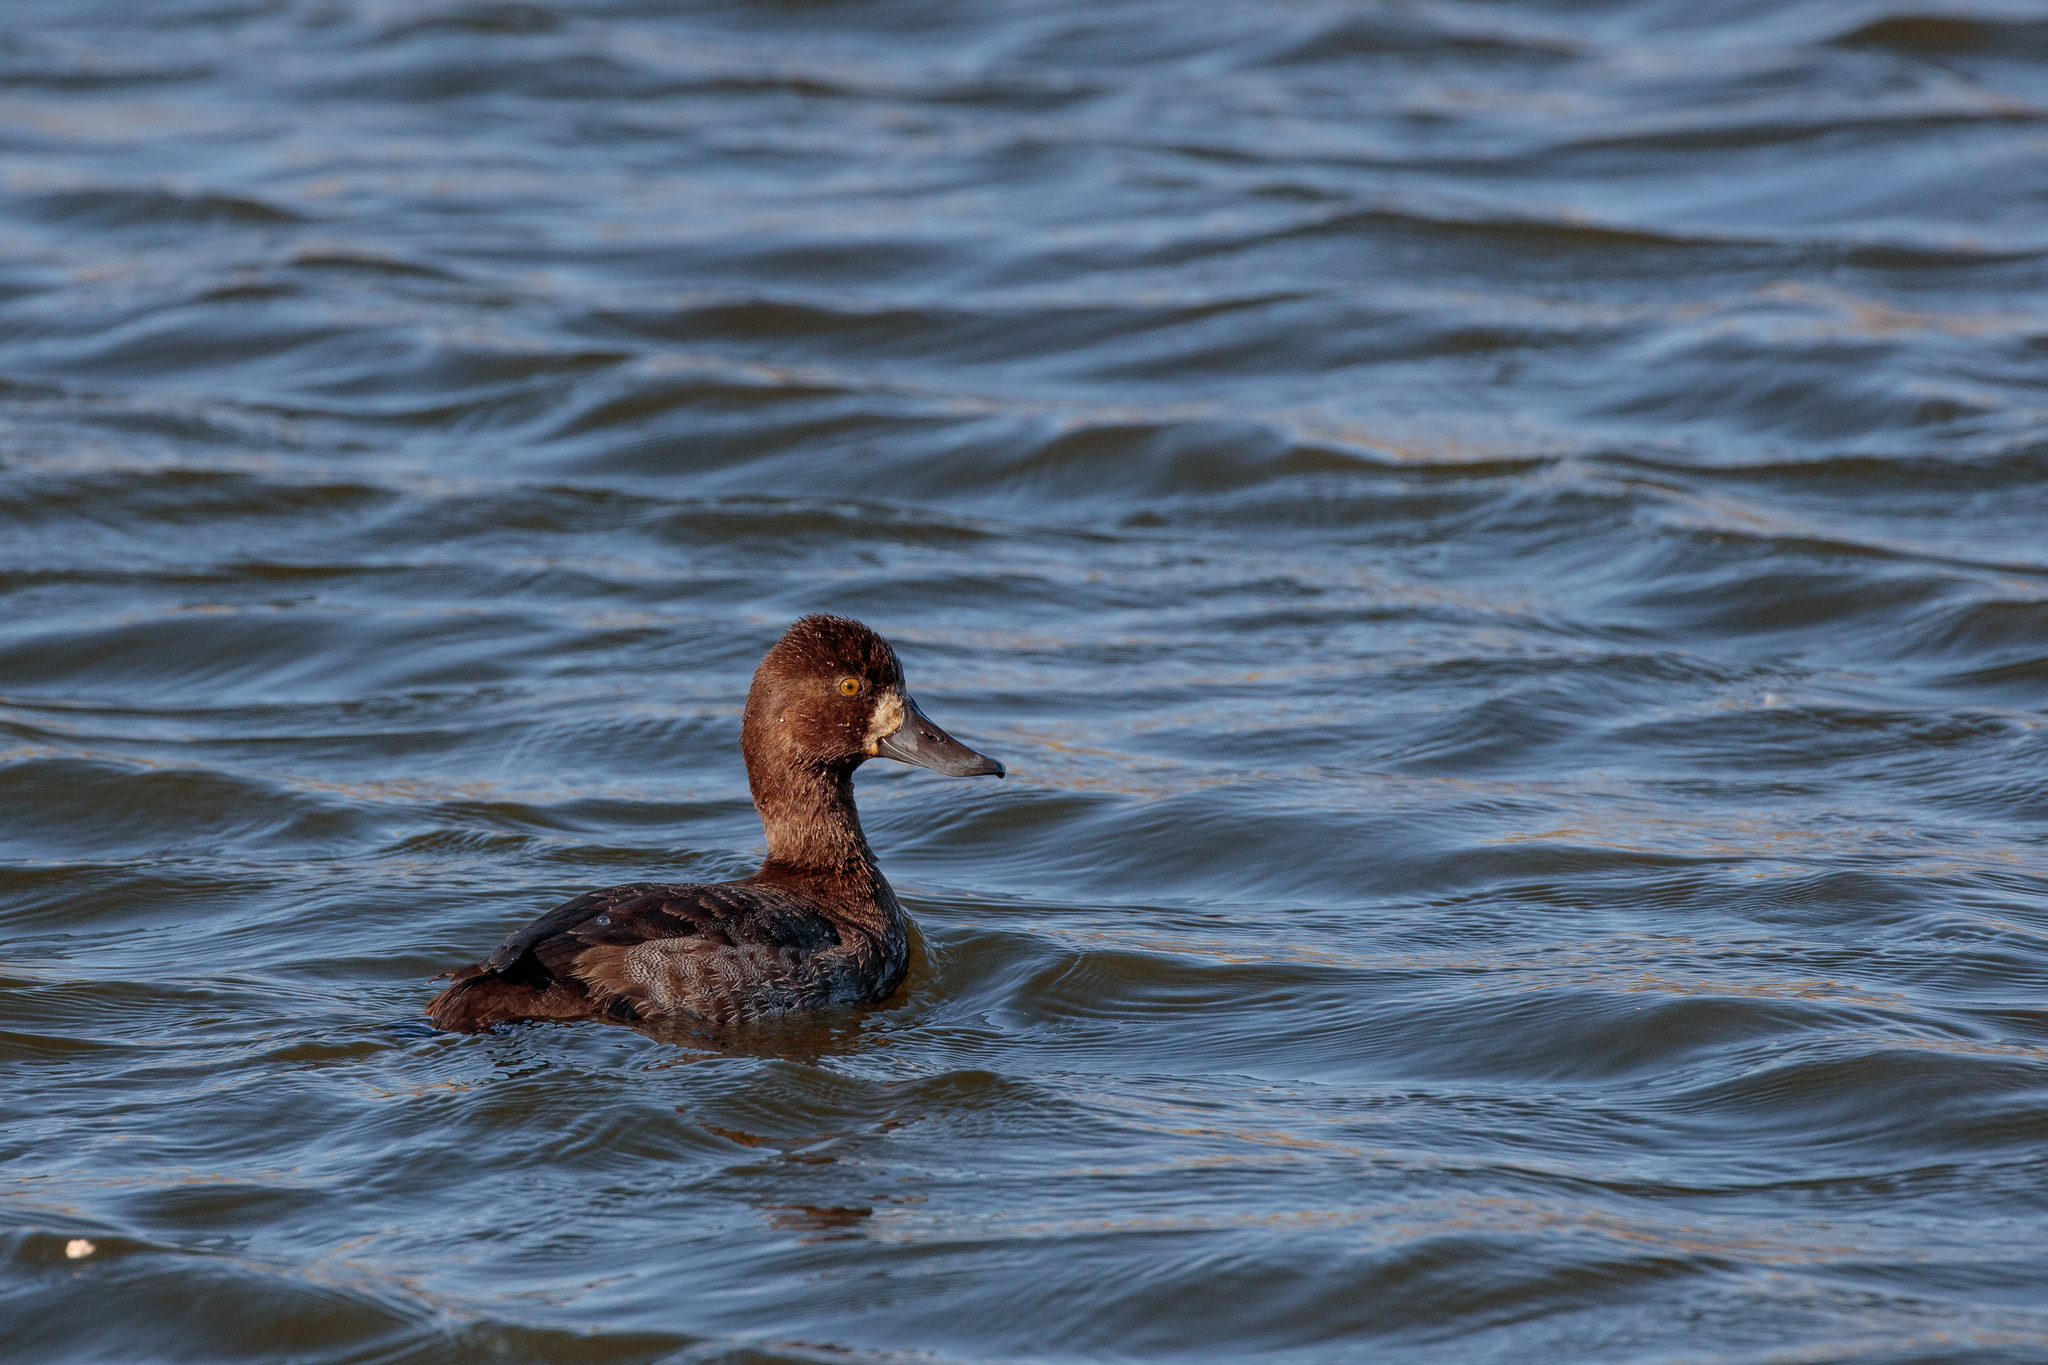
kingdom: Animalia
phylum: Chordata
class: Aves
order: Anseriformes
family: Anatidae
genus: Aythya
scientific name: Aythya affinis
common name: Lesser scaup
